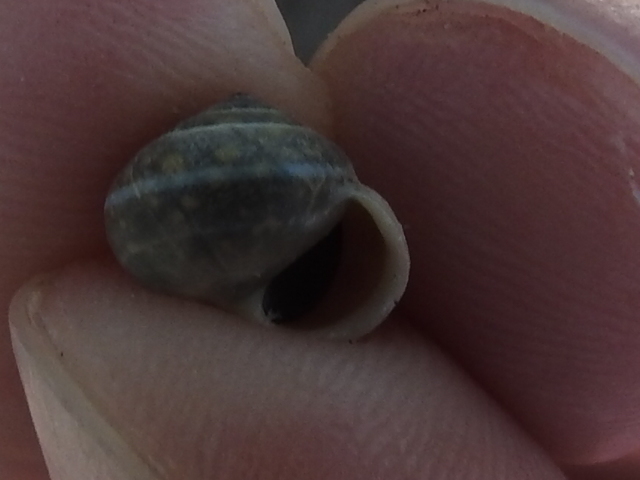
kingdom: Animalia
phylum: Mollusca
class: Gastropoda
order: Cycloneritida
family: Helicinidae
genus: Helicina
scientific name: Helicina orbiculata
